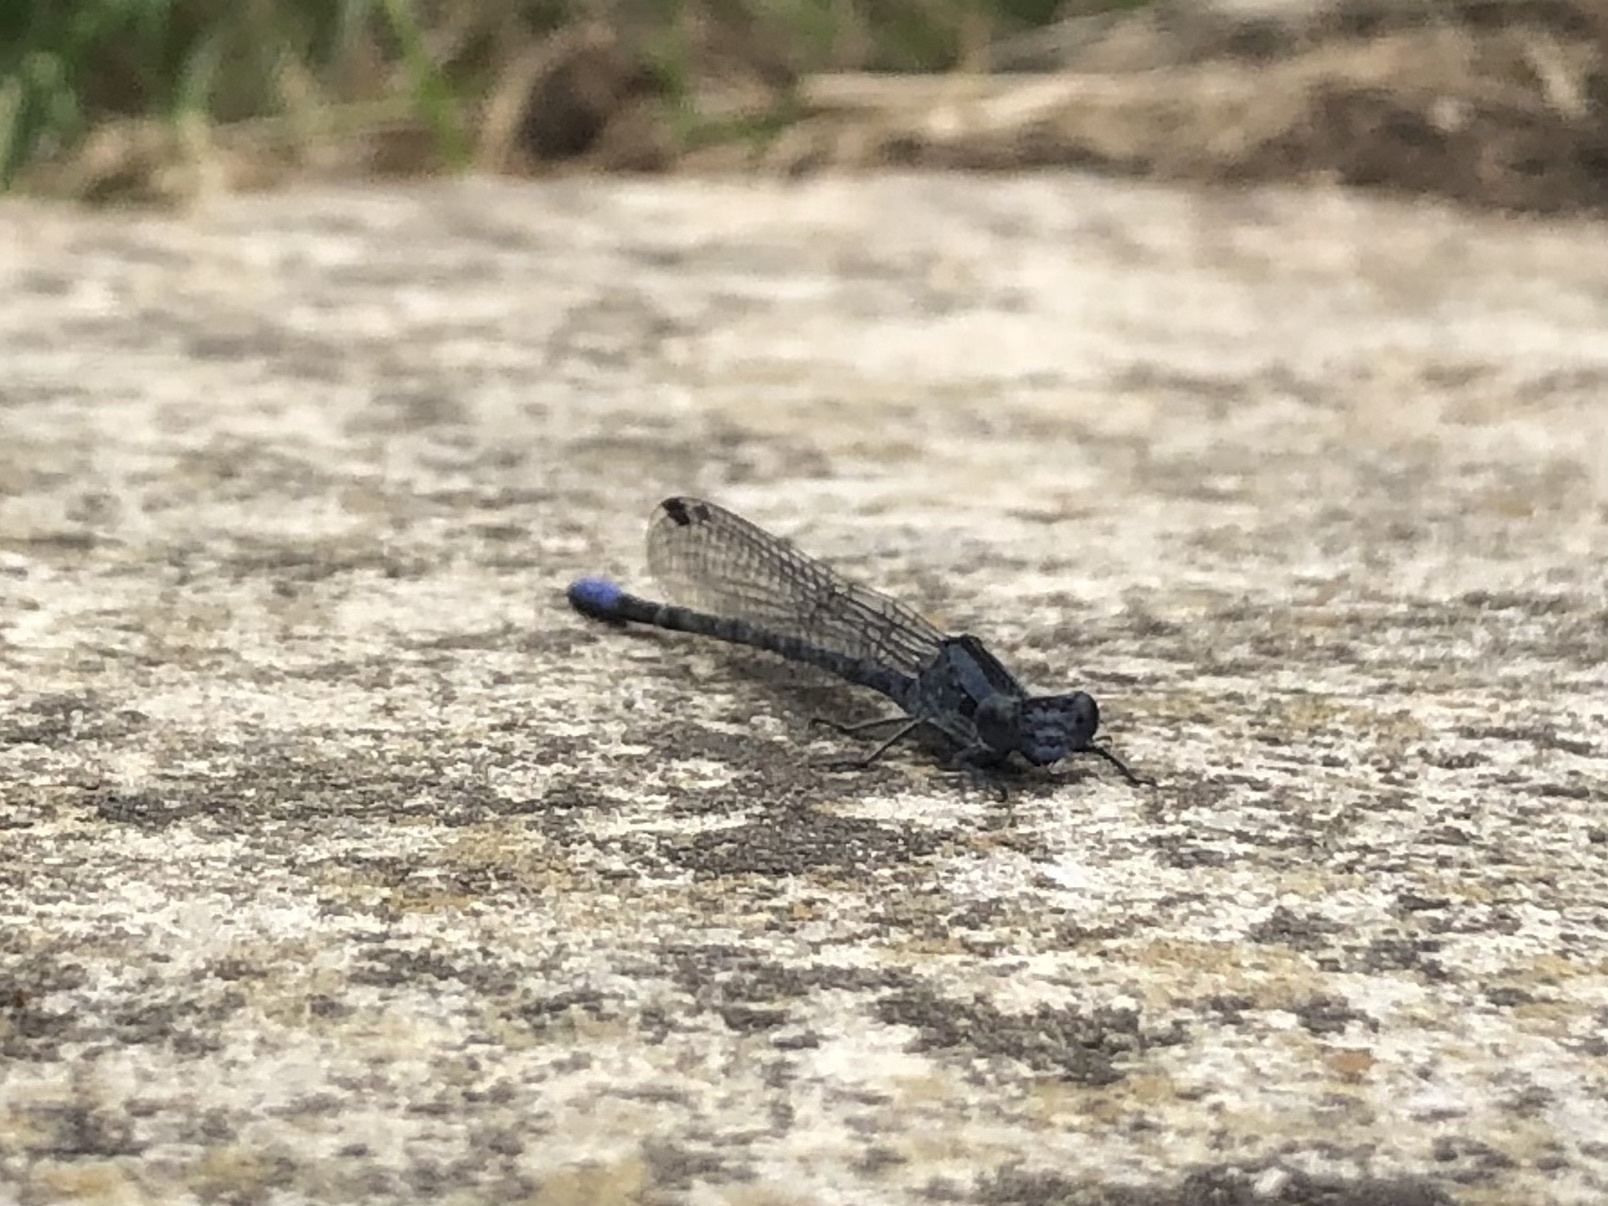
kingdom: Animalia
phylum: Arthropoda
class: Insecta
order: Odonata
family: Coenagrionidae
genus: Argia
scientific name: Argia immunda
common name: Kiowa dancer
